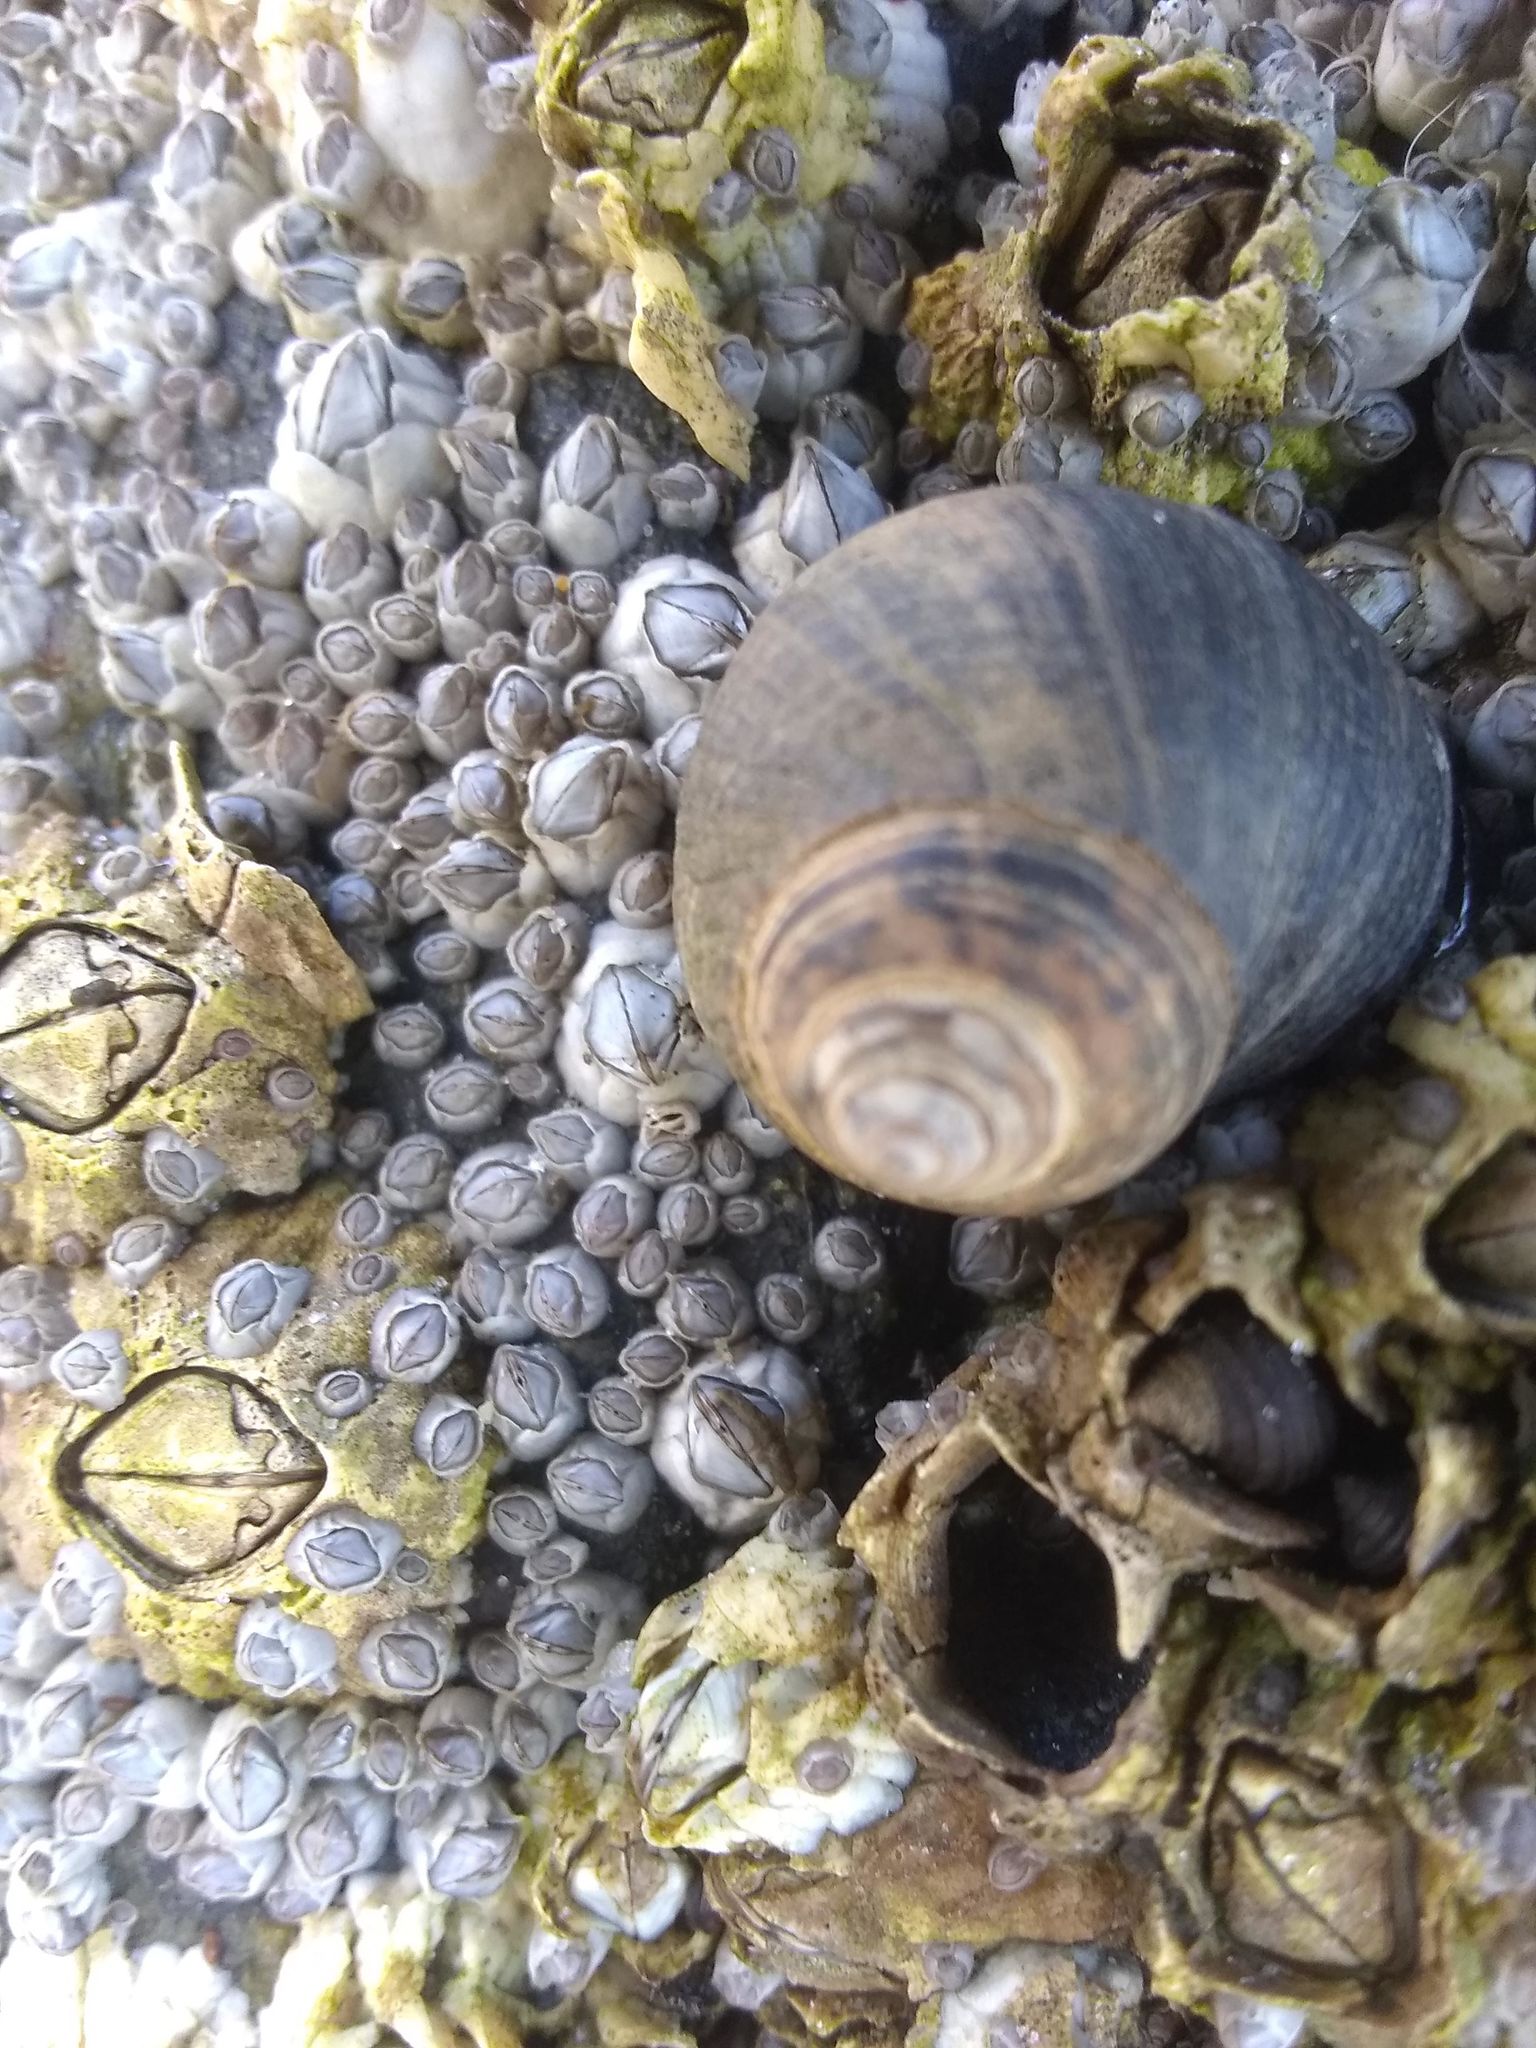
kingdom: Animalia
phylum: Arthropoda
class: Maxillopoda
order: Sessilia
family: Archaeobalanidae
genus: Semibalanus
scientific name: Semibalanus balanoides
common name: Acorn barnacle
